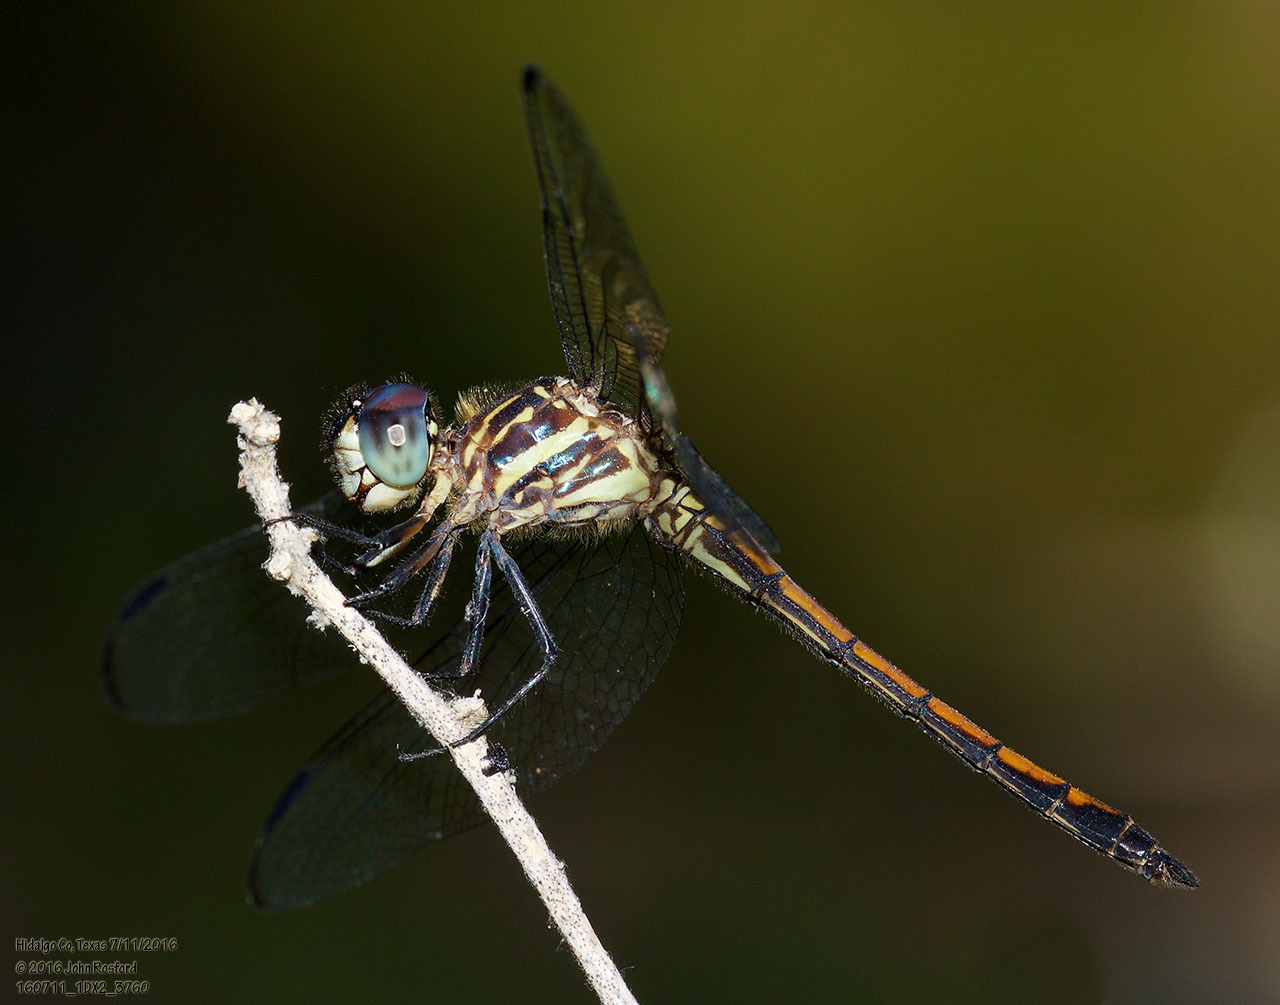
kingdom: Animalia
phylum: Arthropoda
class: Insecta
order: Odonata
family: Libellulidae
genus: Cannaphila
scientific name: Cannaphila insularis
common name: Gray-waisted skimmer
